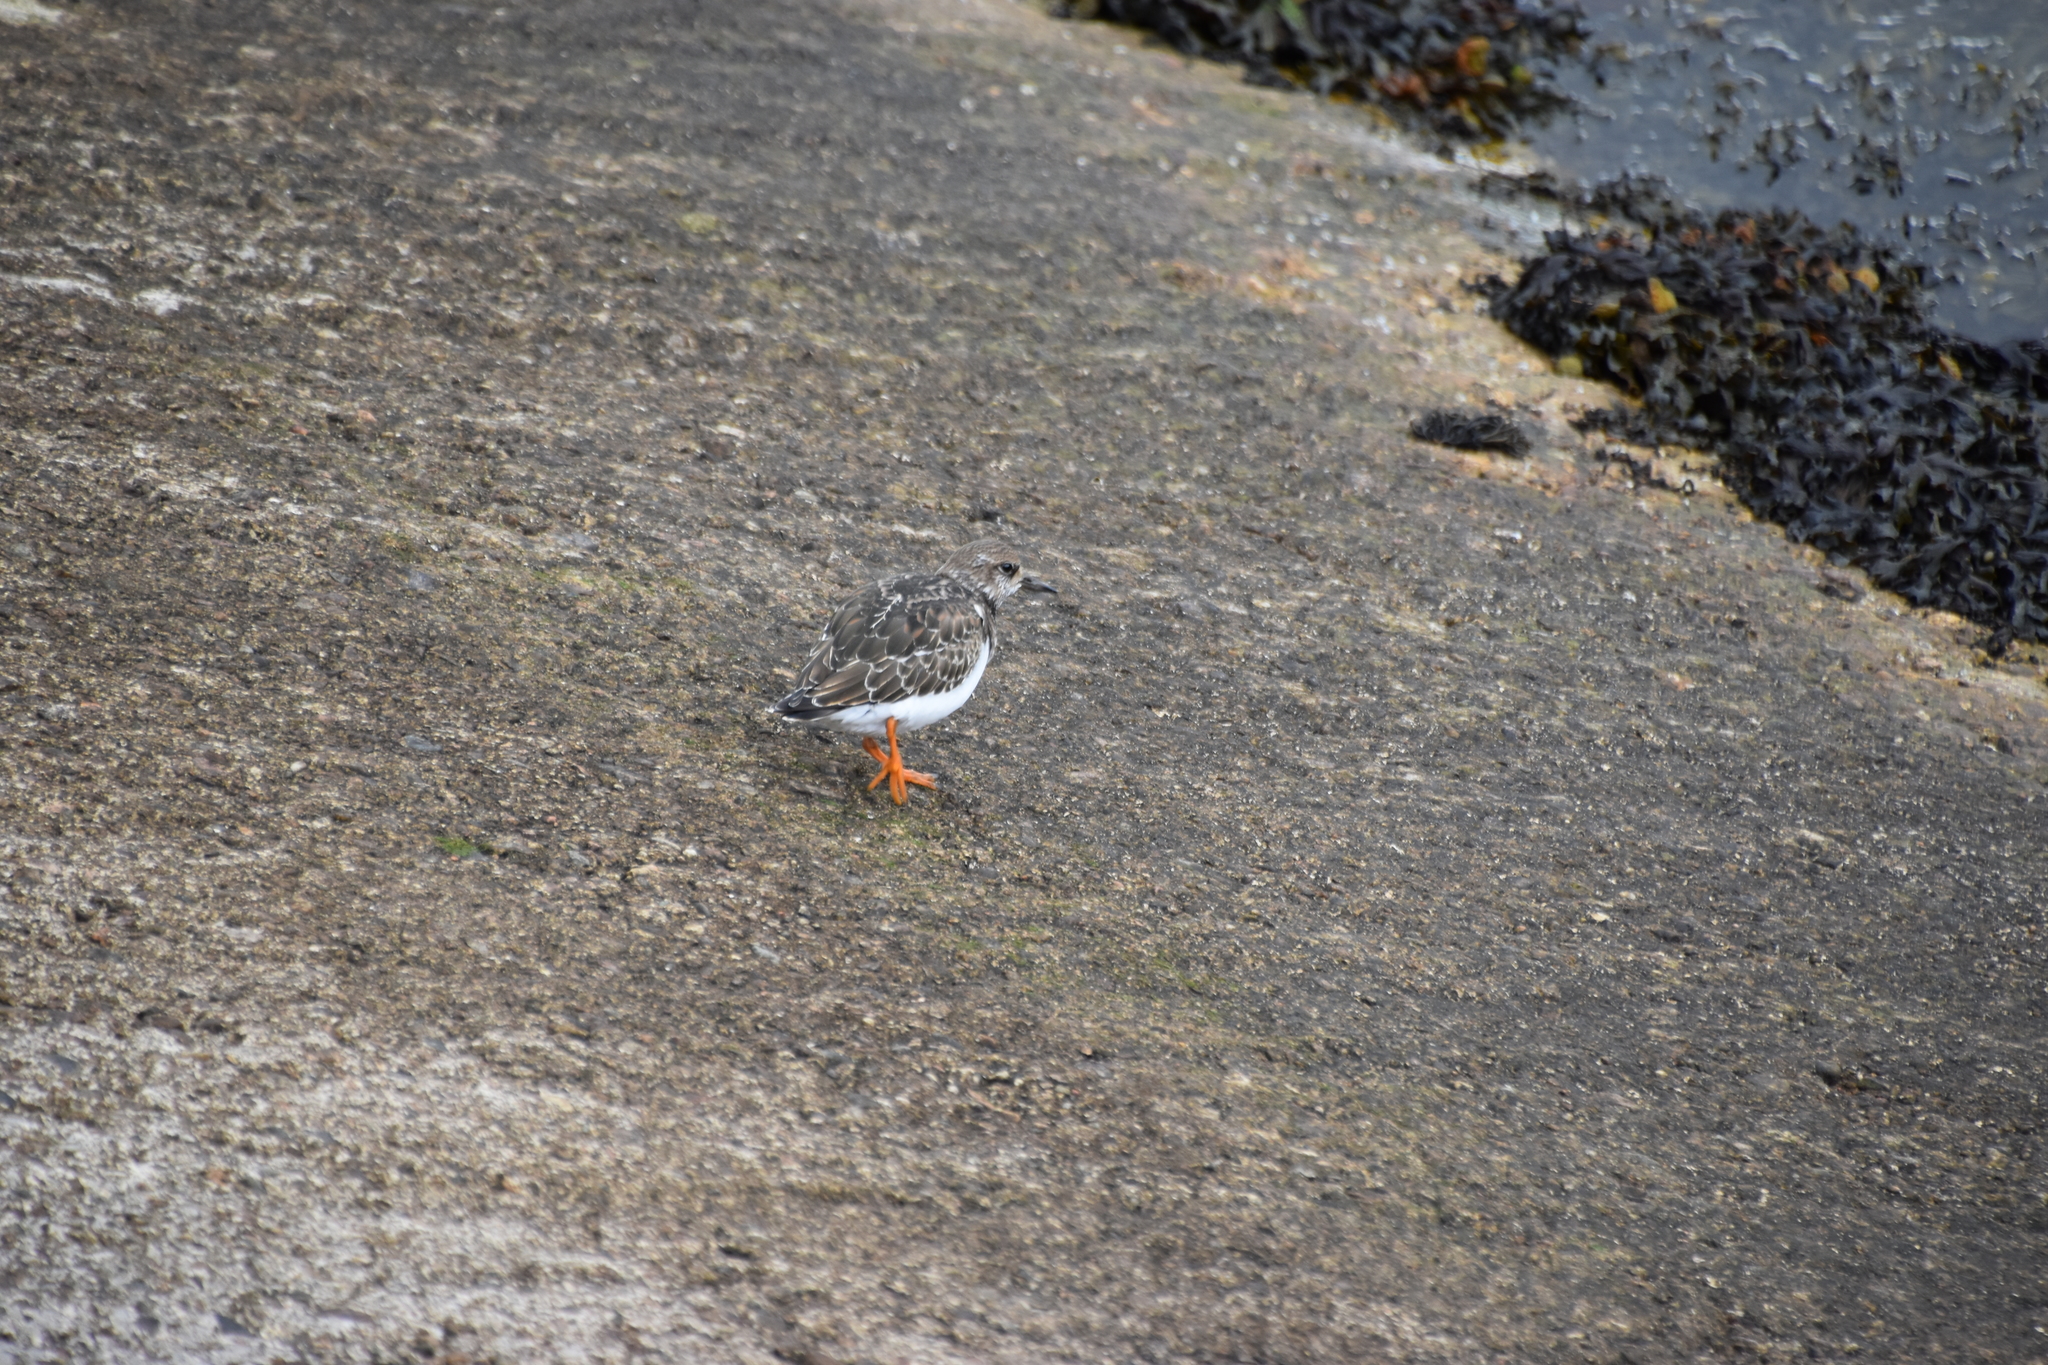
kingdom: Animalia
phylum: Chordata
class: Aves
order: Charadriiformes
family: Scolopacidae
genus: Arenaria
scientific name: Arenaria interpres
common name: Ruddy turnstone
